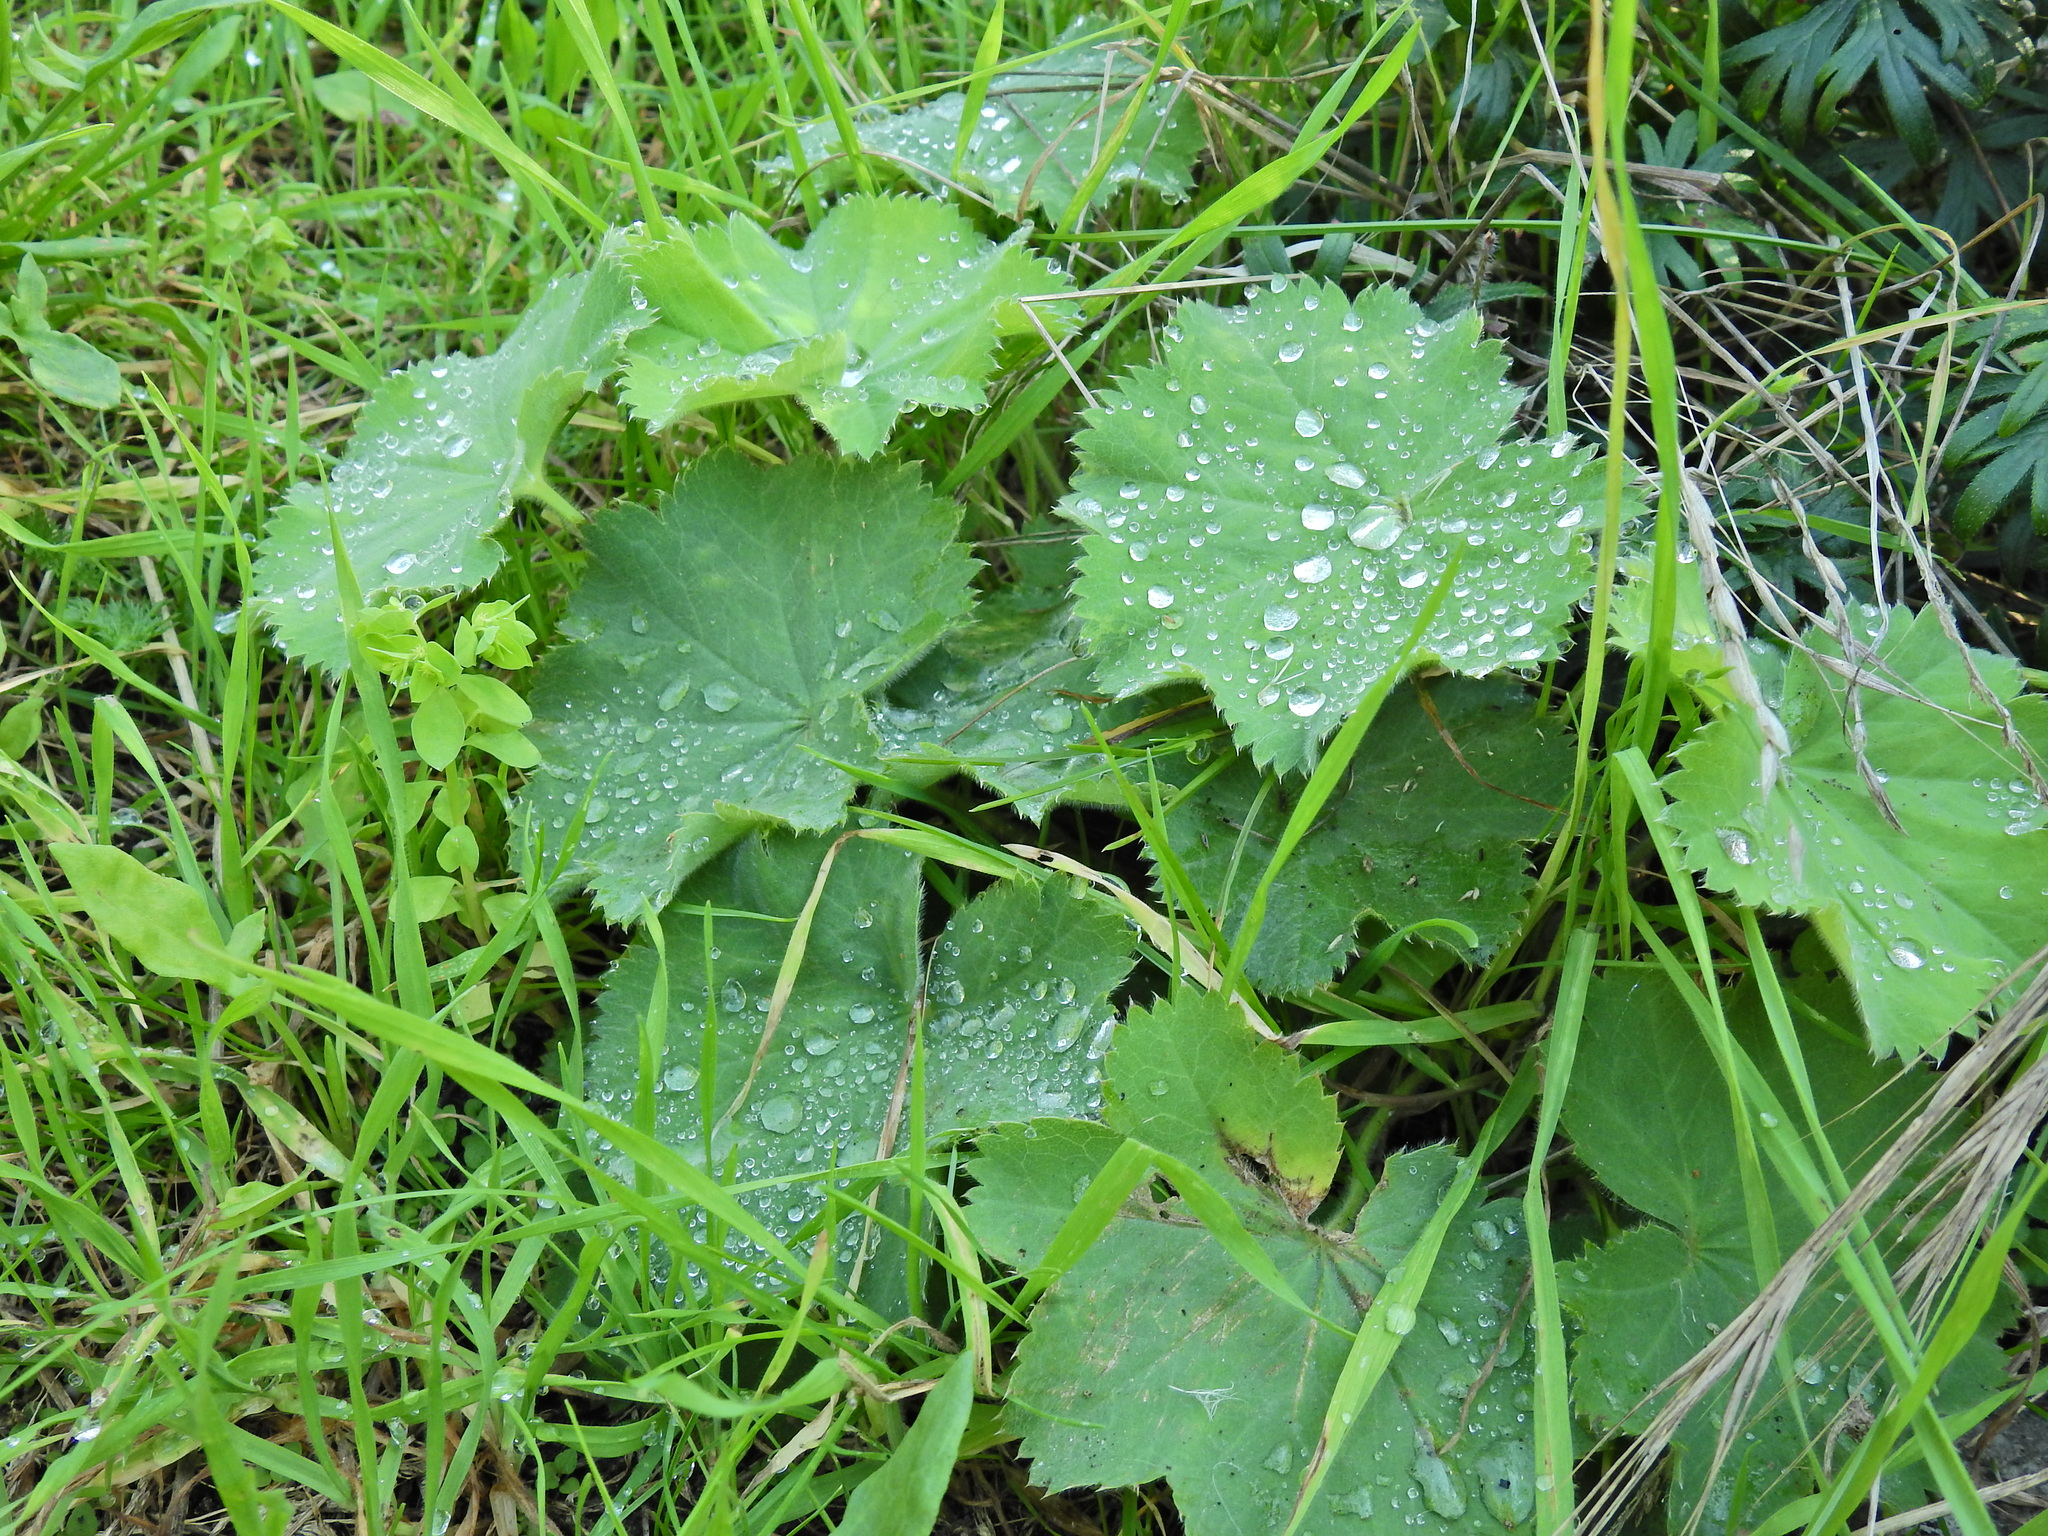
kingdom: Plantae
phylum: Tracheophyta
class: Magnoliopsida
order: Rosales
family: Rosaceae
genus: Alchemilla
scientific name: Alchemilla mollis
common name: Lady's-mantle
